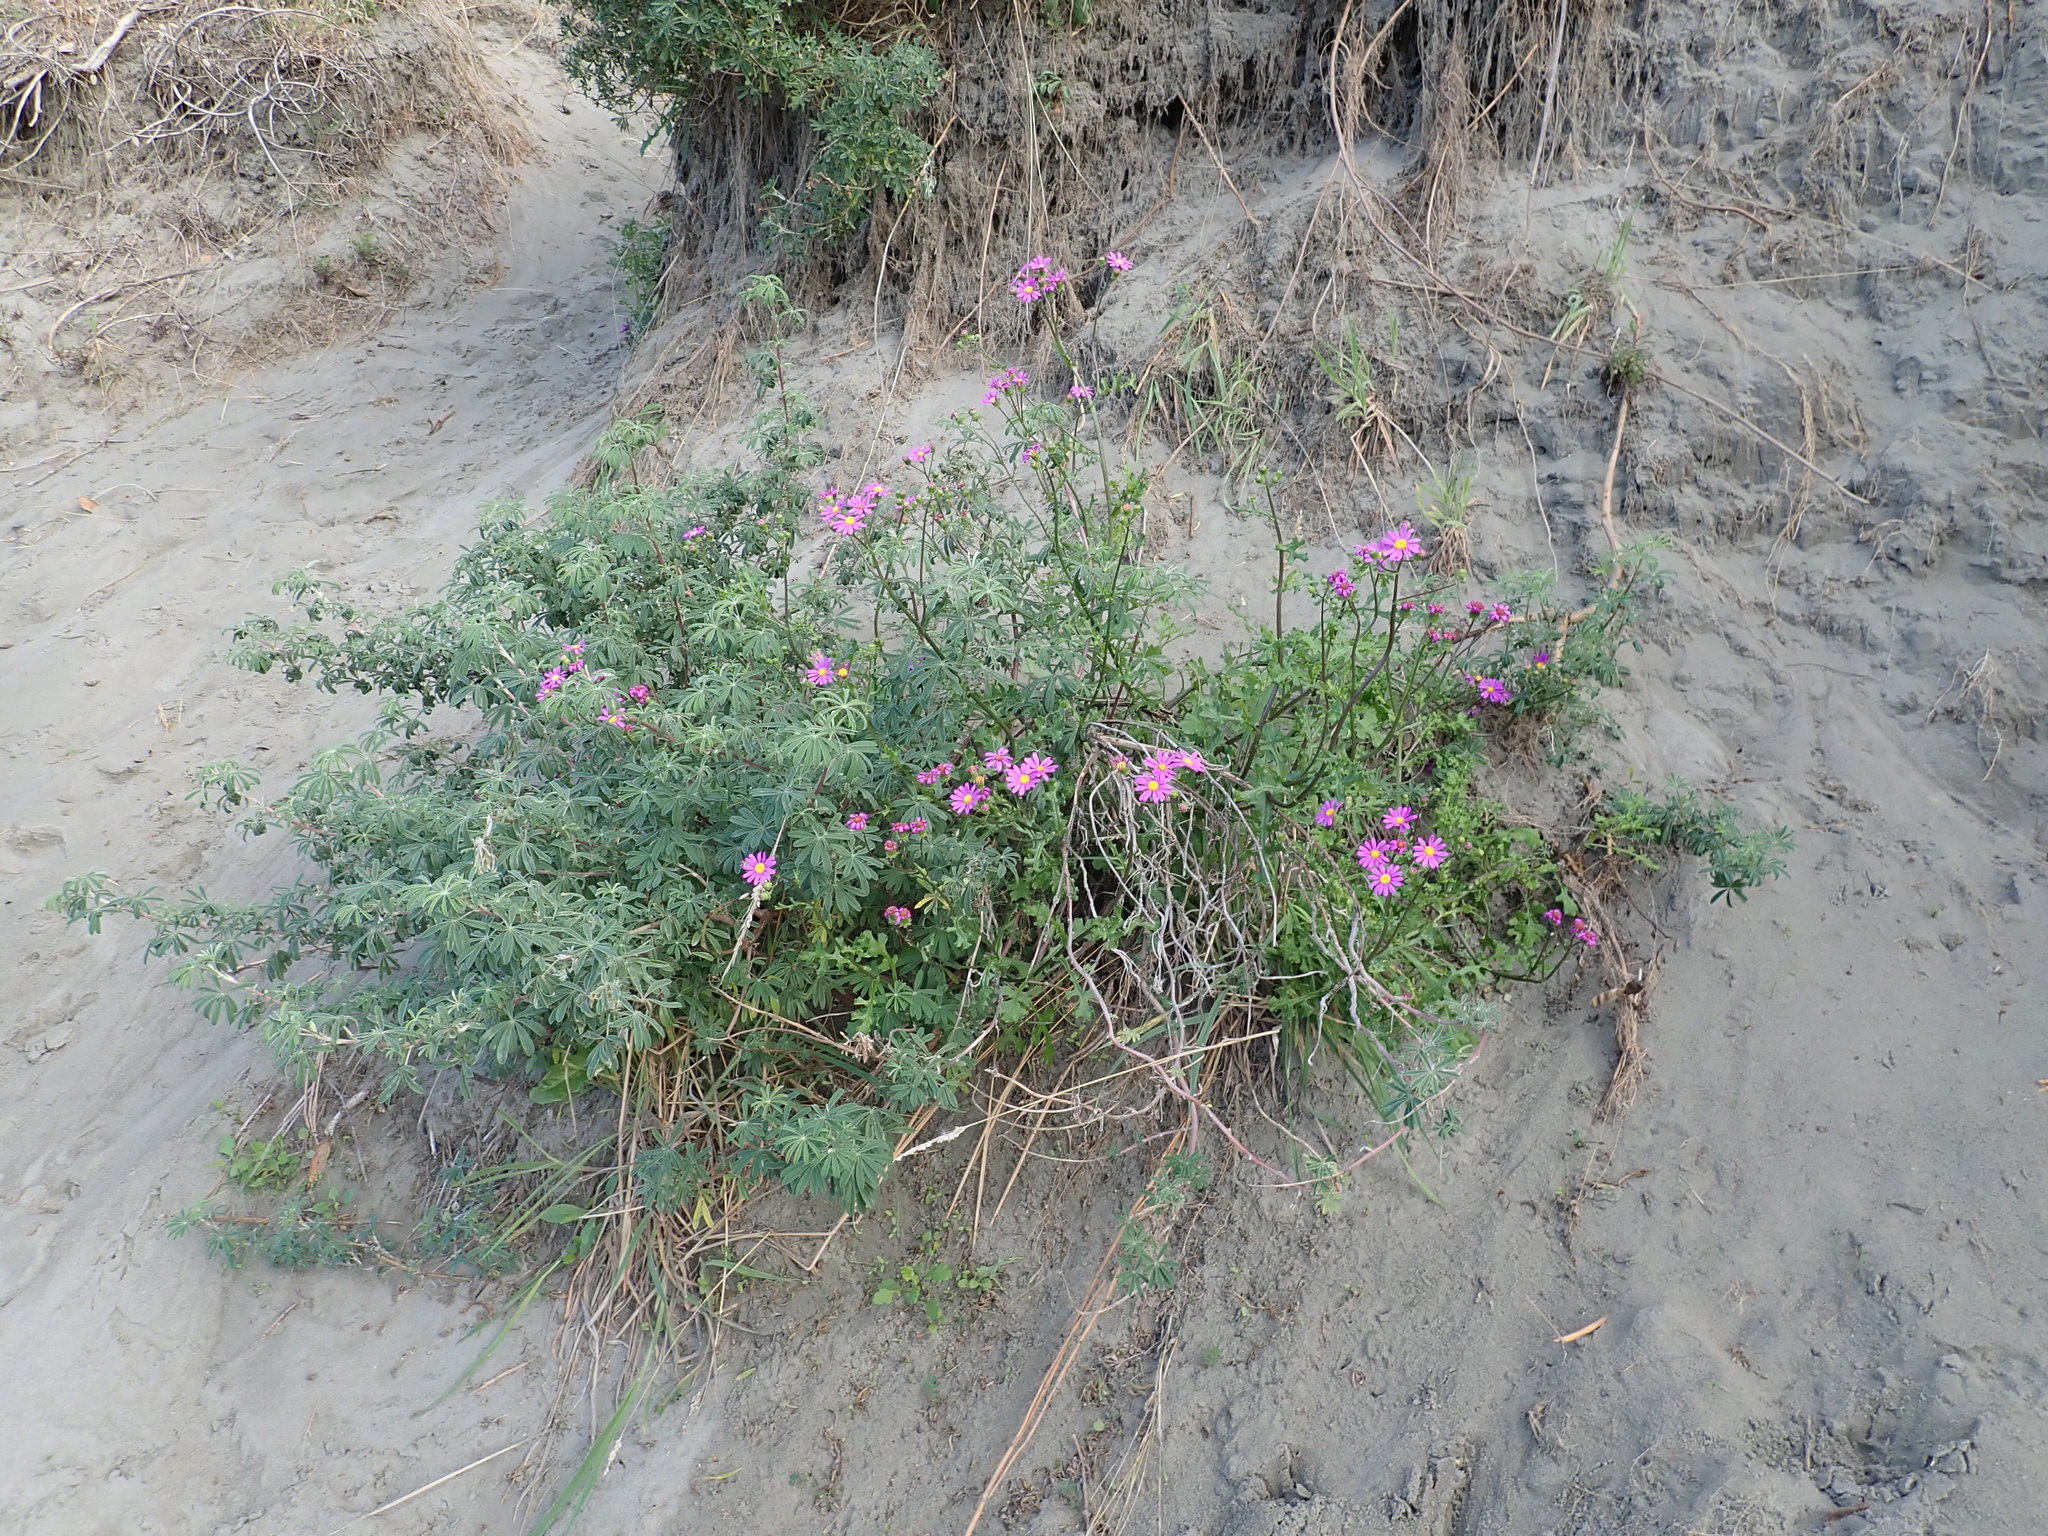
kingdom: Plantae
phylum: Tracheophyta
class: Magnoliopsida
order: Asterales
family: Asteraceae
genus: Senecio
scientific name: Senecio elegans
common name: Purple groundsel
